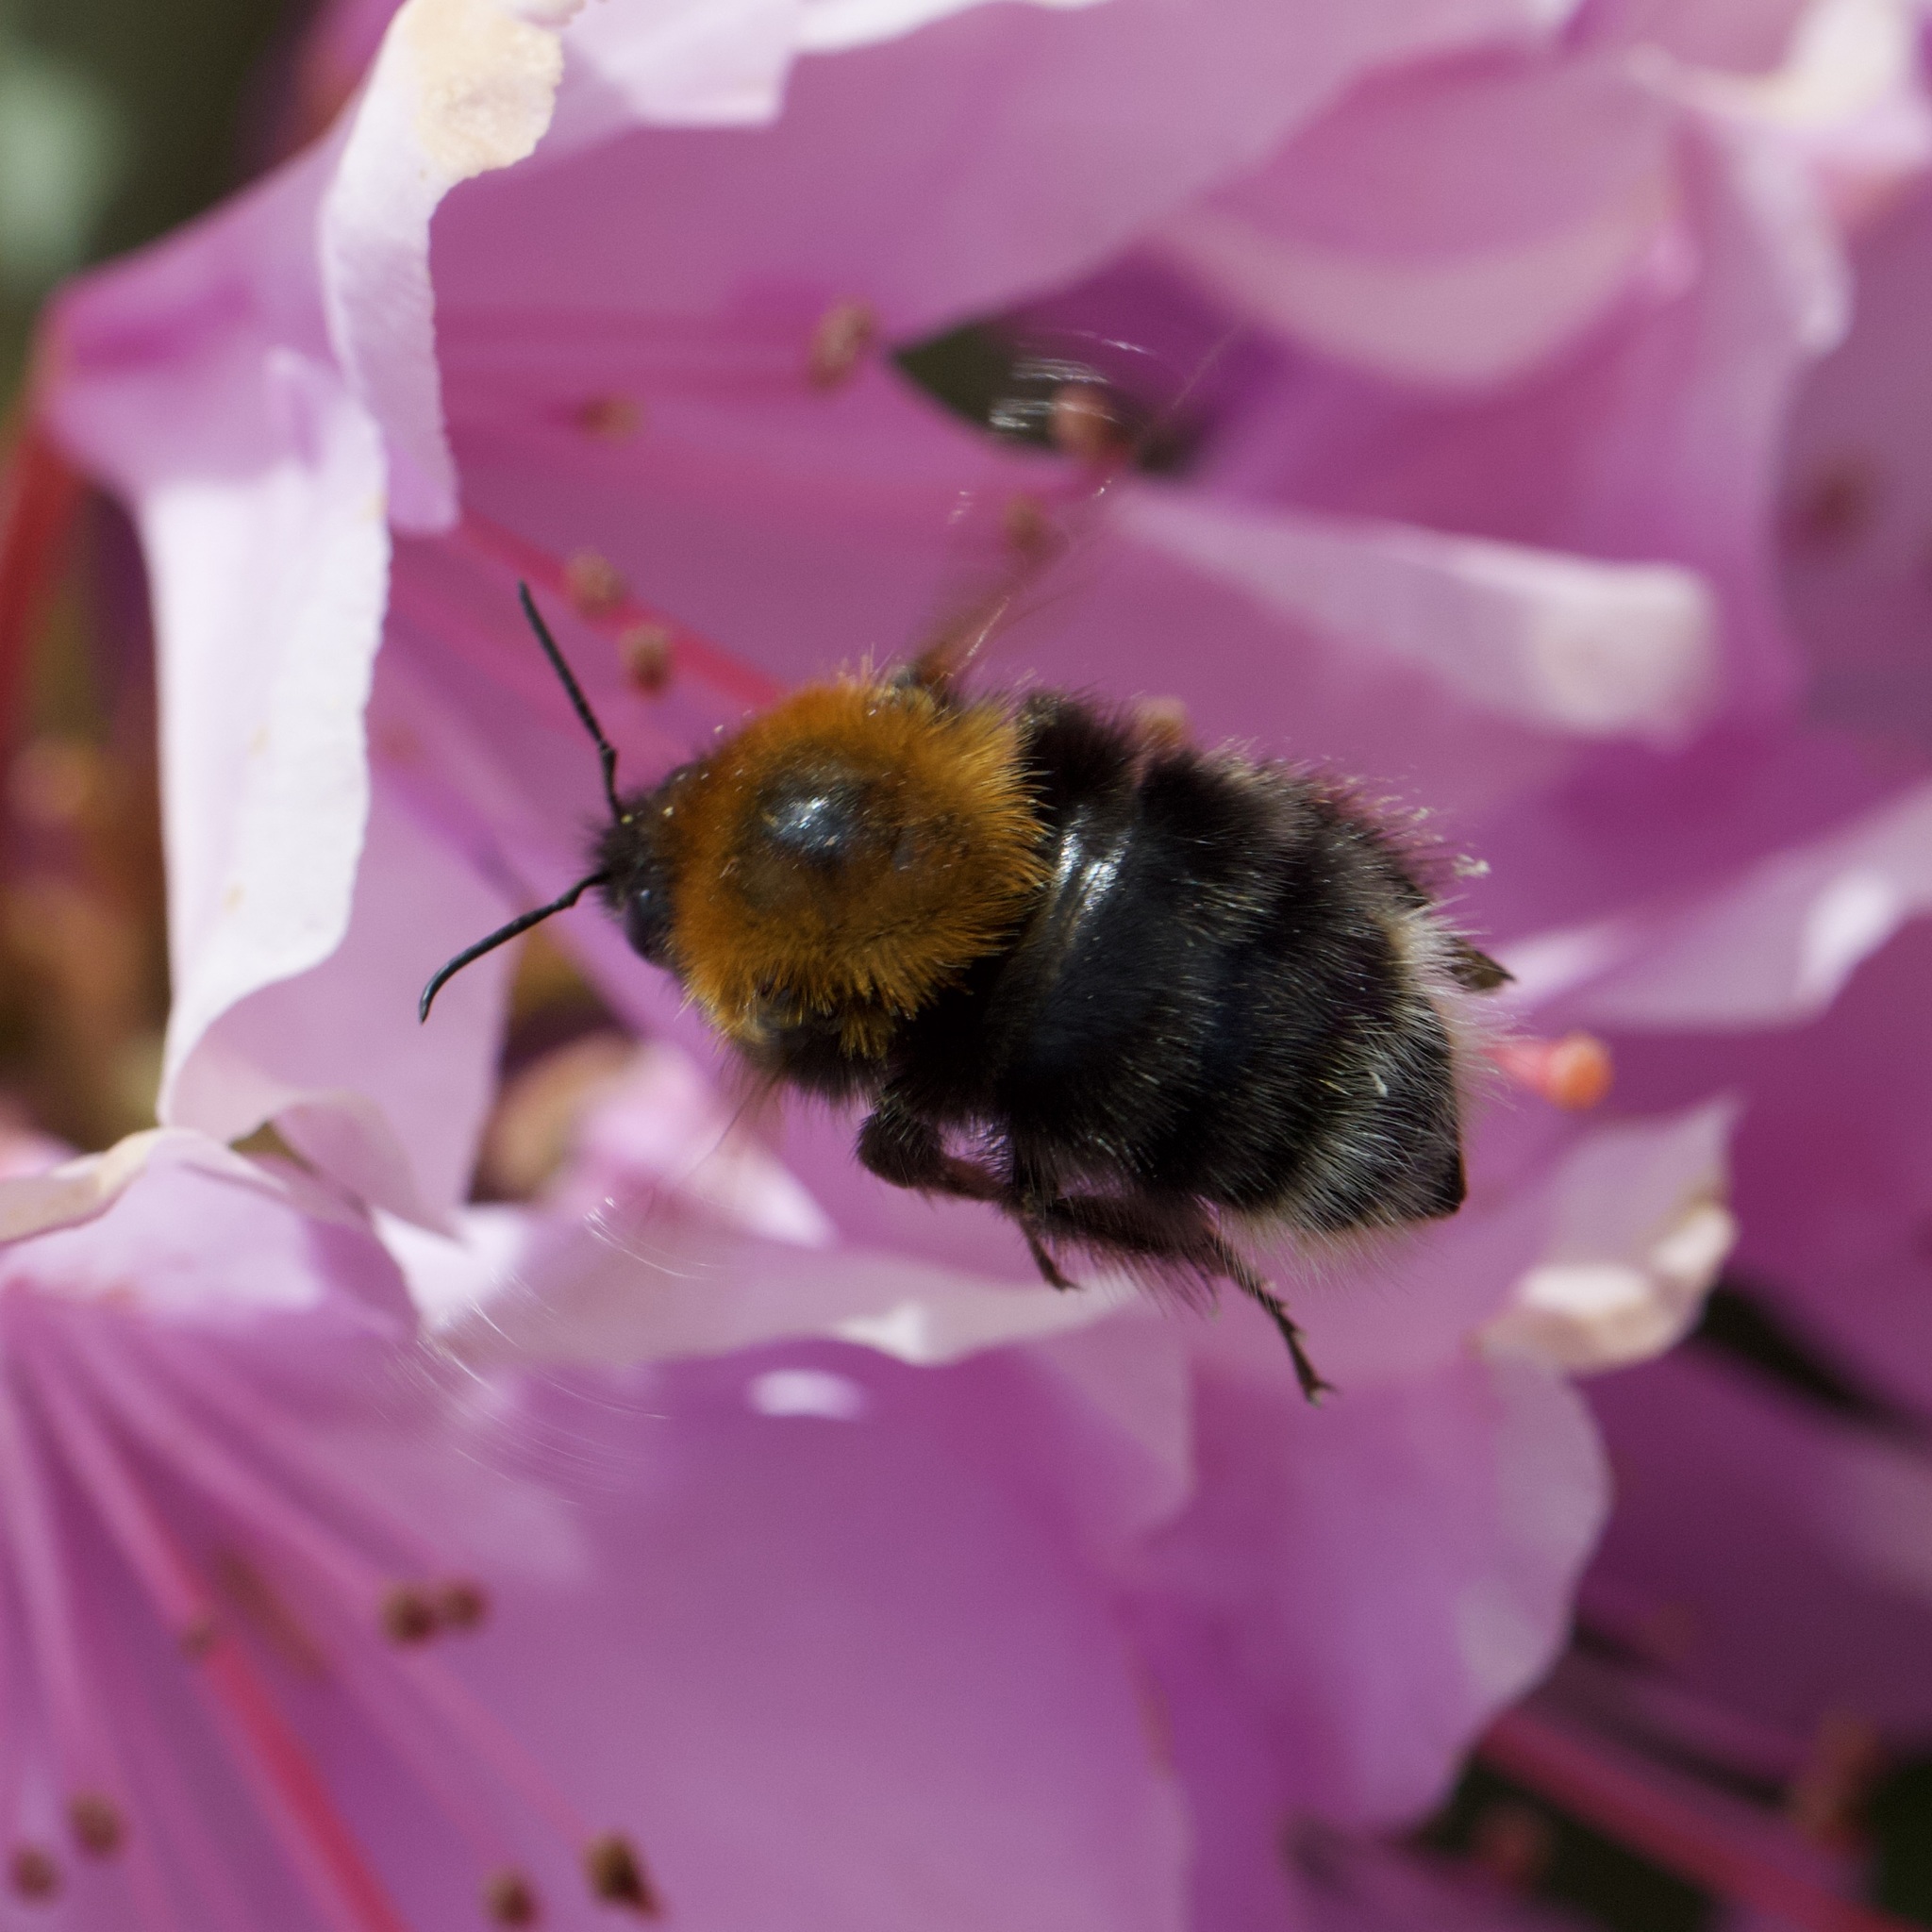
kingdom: Animalia
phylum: Arthropoda
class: Insecta
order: Hymenoptera
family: Apidae
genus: Bombus
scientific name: Bombus hypnorum
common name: New garden bumblebee
